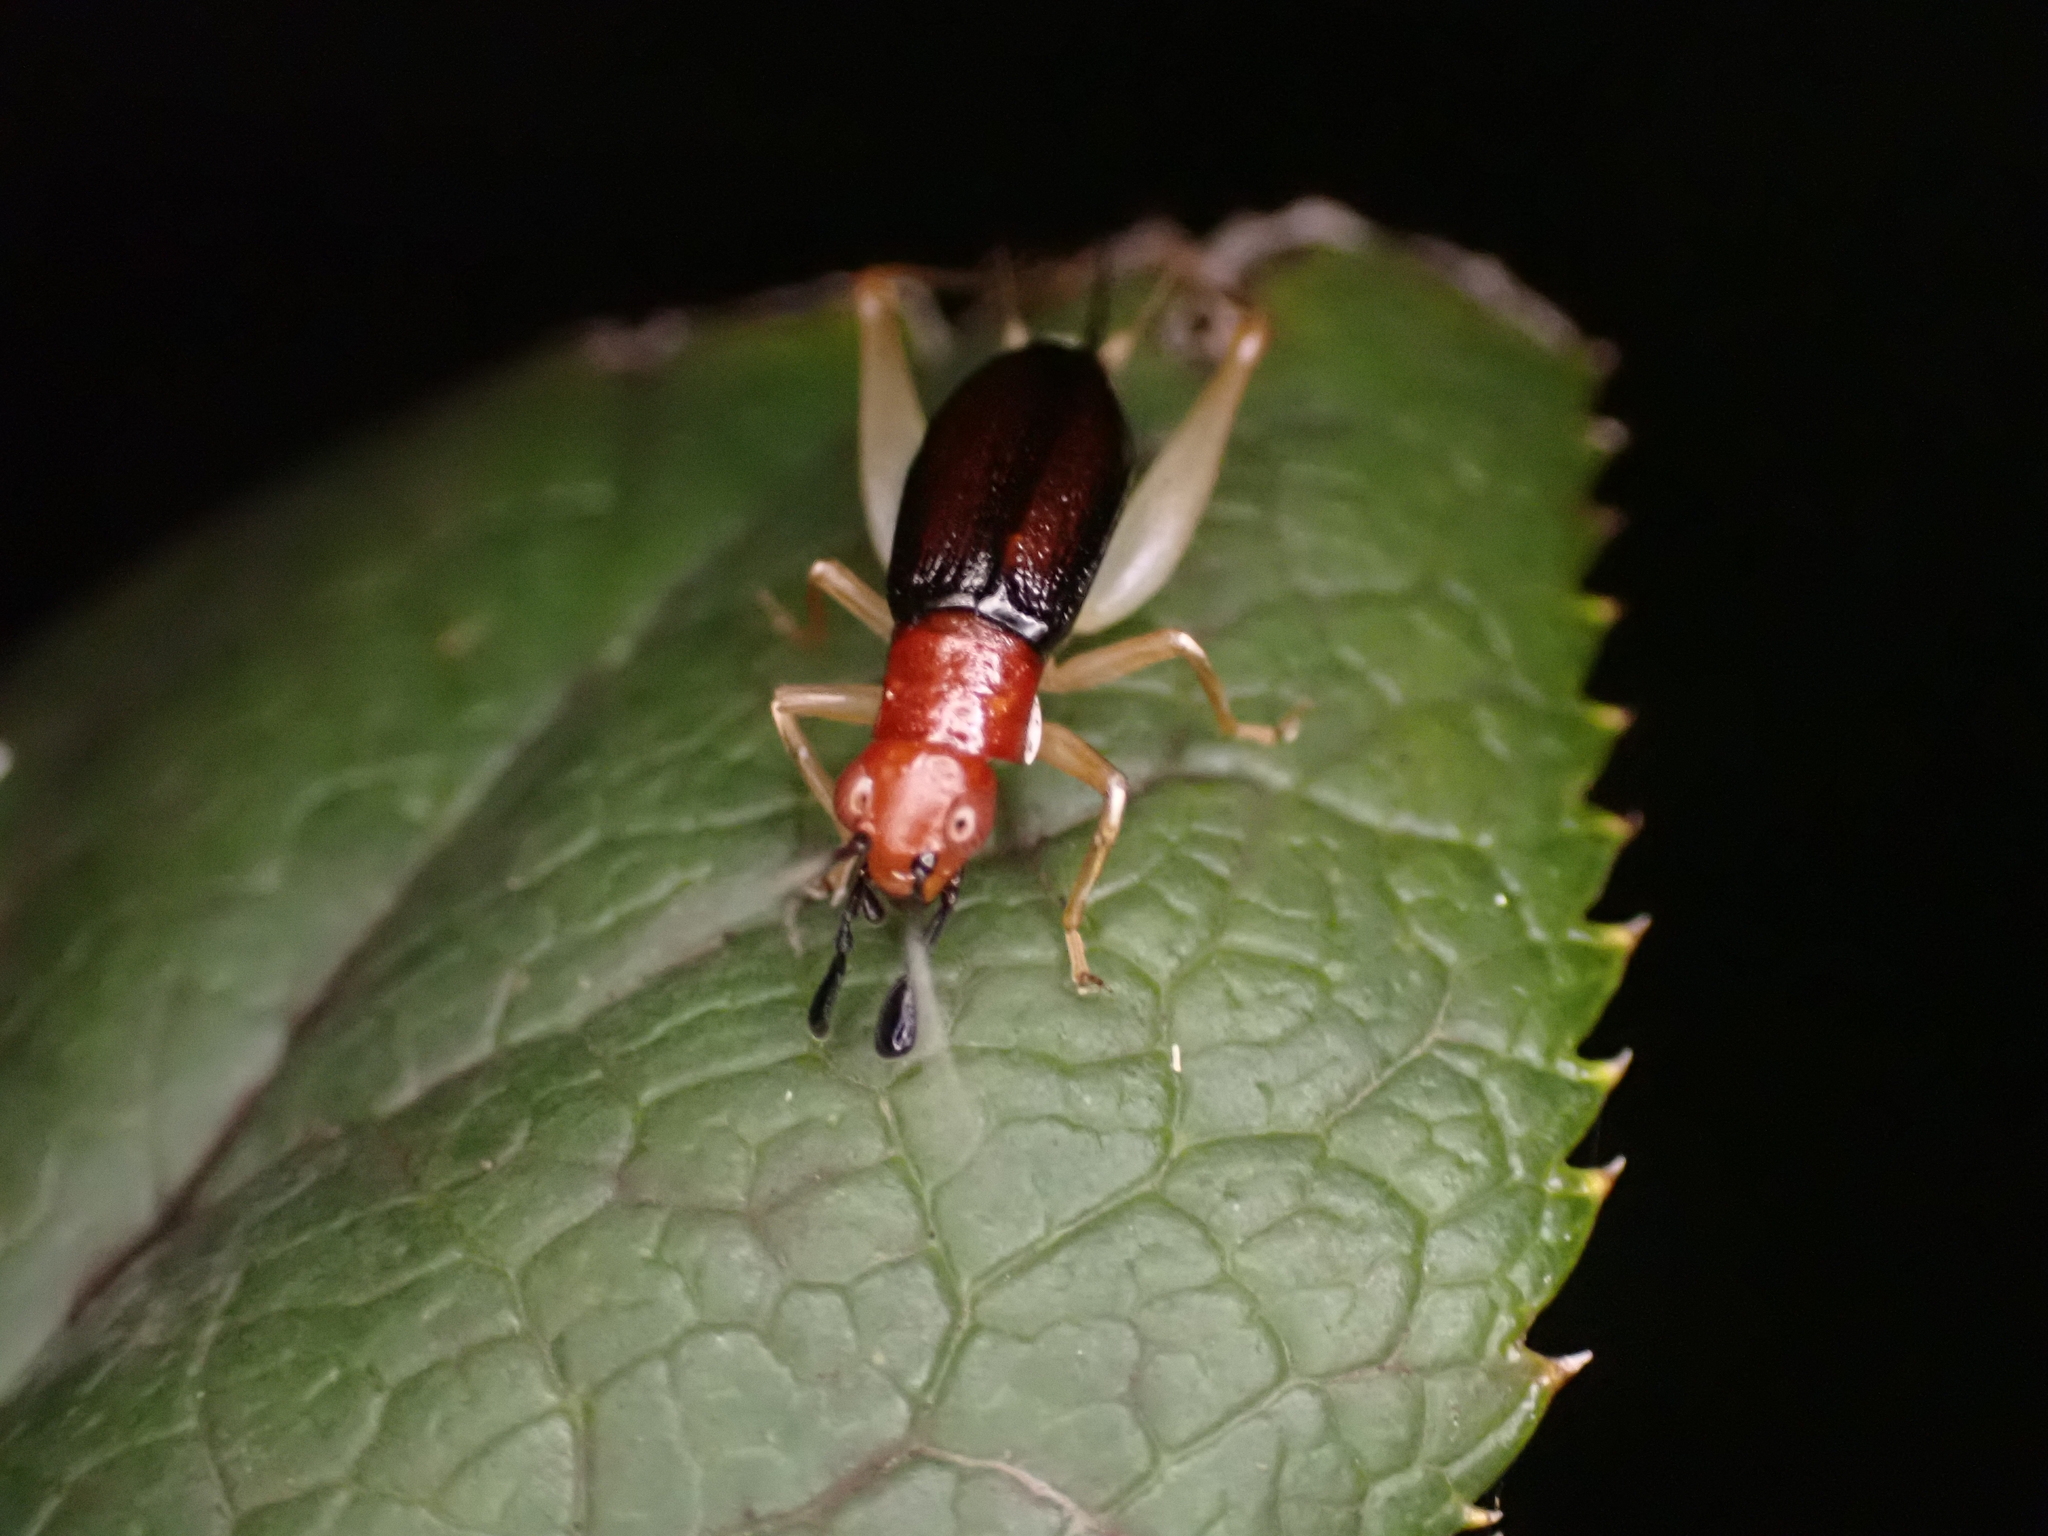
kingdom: Animalia
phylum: Arthropoda
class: Insecta
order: Orthoptera
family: Trigonidiidae
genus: Phyllopalpus
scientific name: Phyllopalpus pulchellus
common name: Handsome trig
